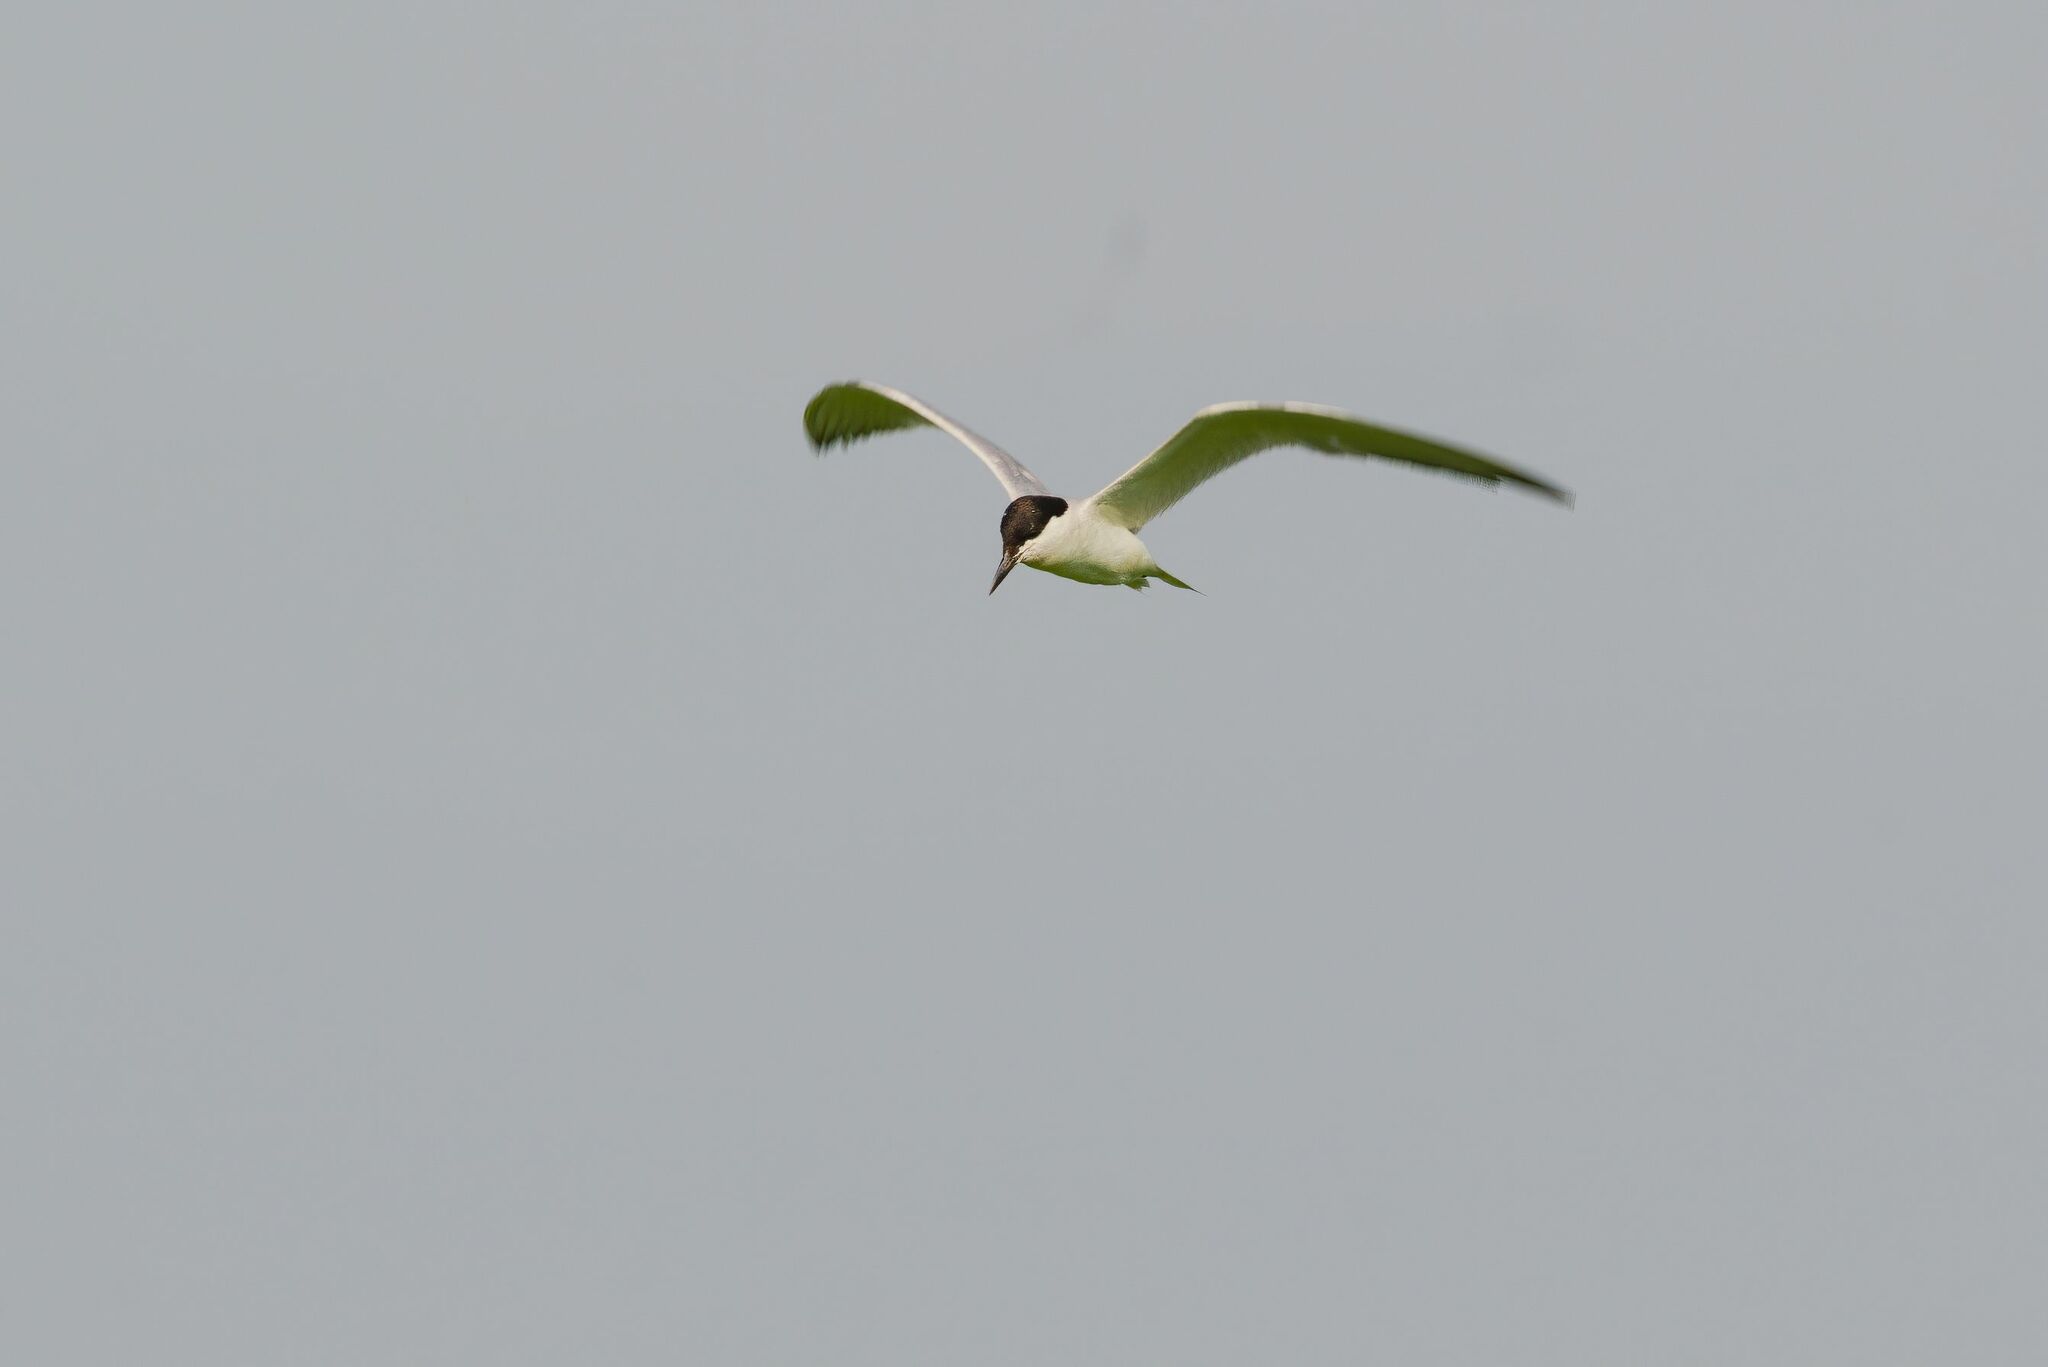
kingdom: Animalia
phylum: Chordata
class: Aves
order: Charadriiformes
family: Laridae
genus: Gelochelidon
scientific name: Gelochelidon nilotica
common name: Gull-billed tern
